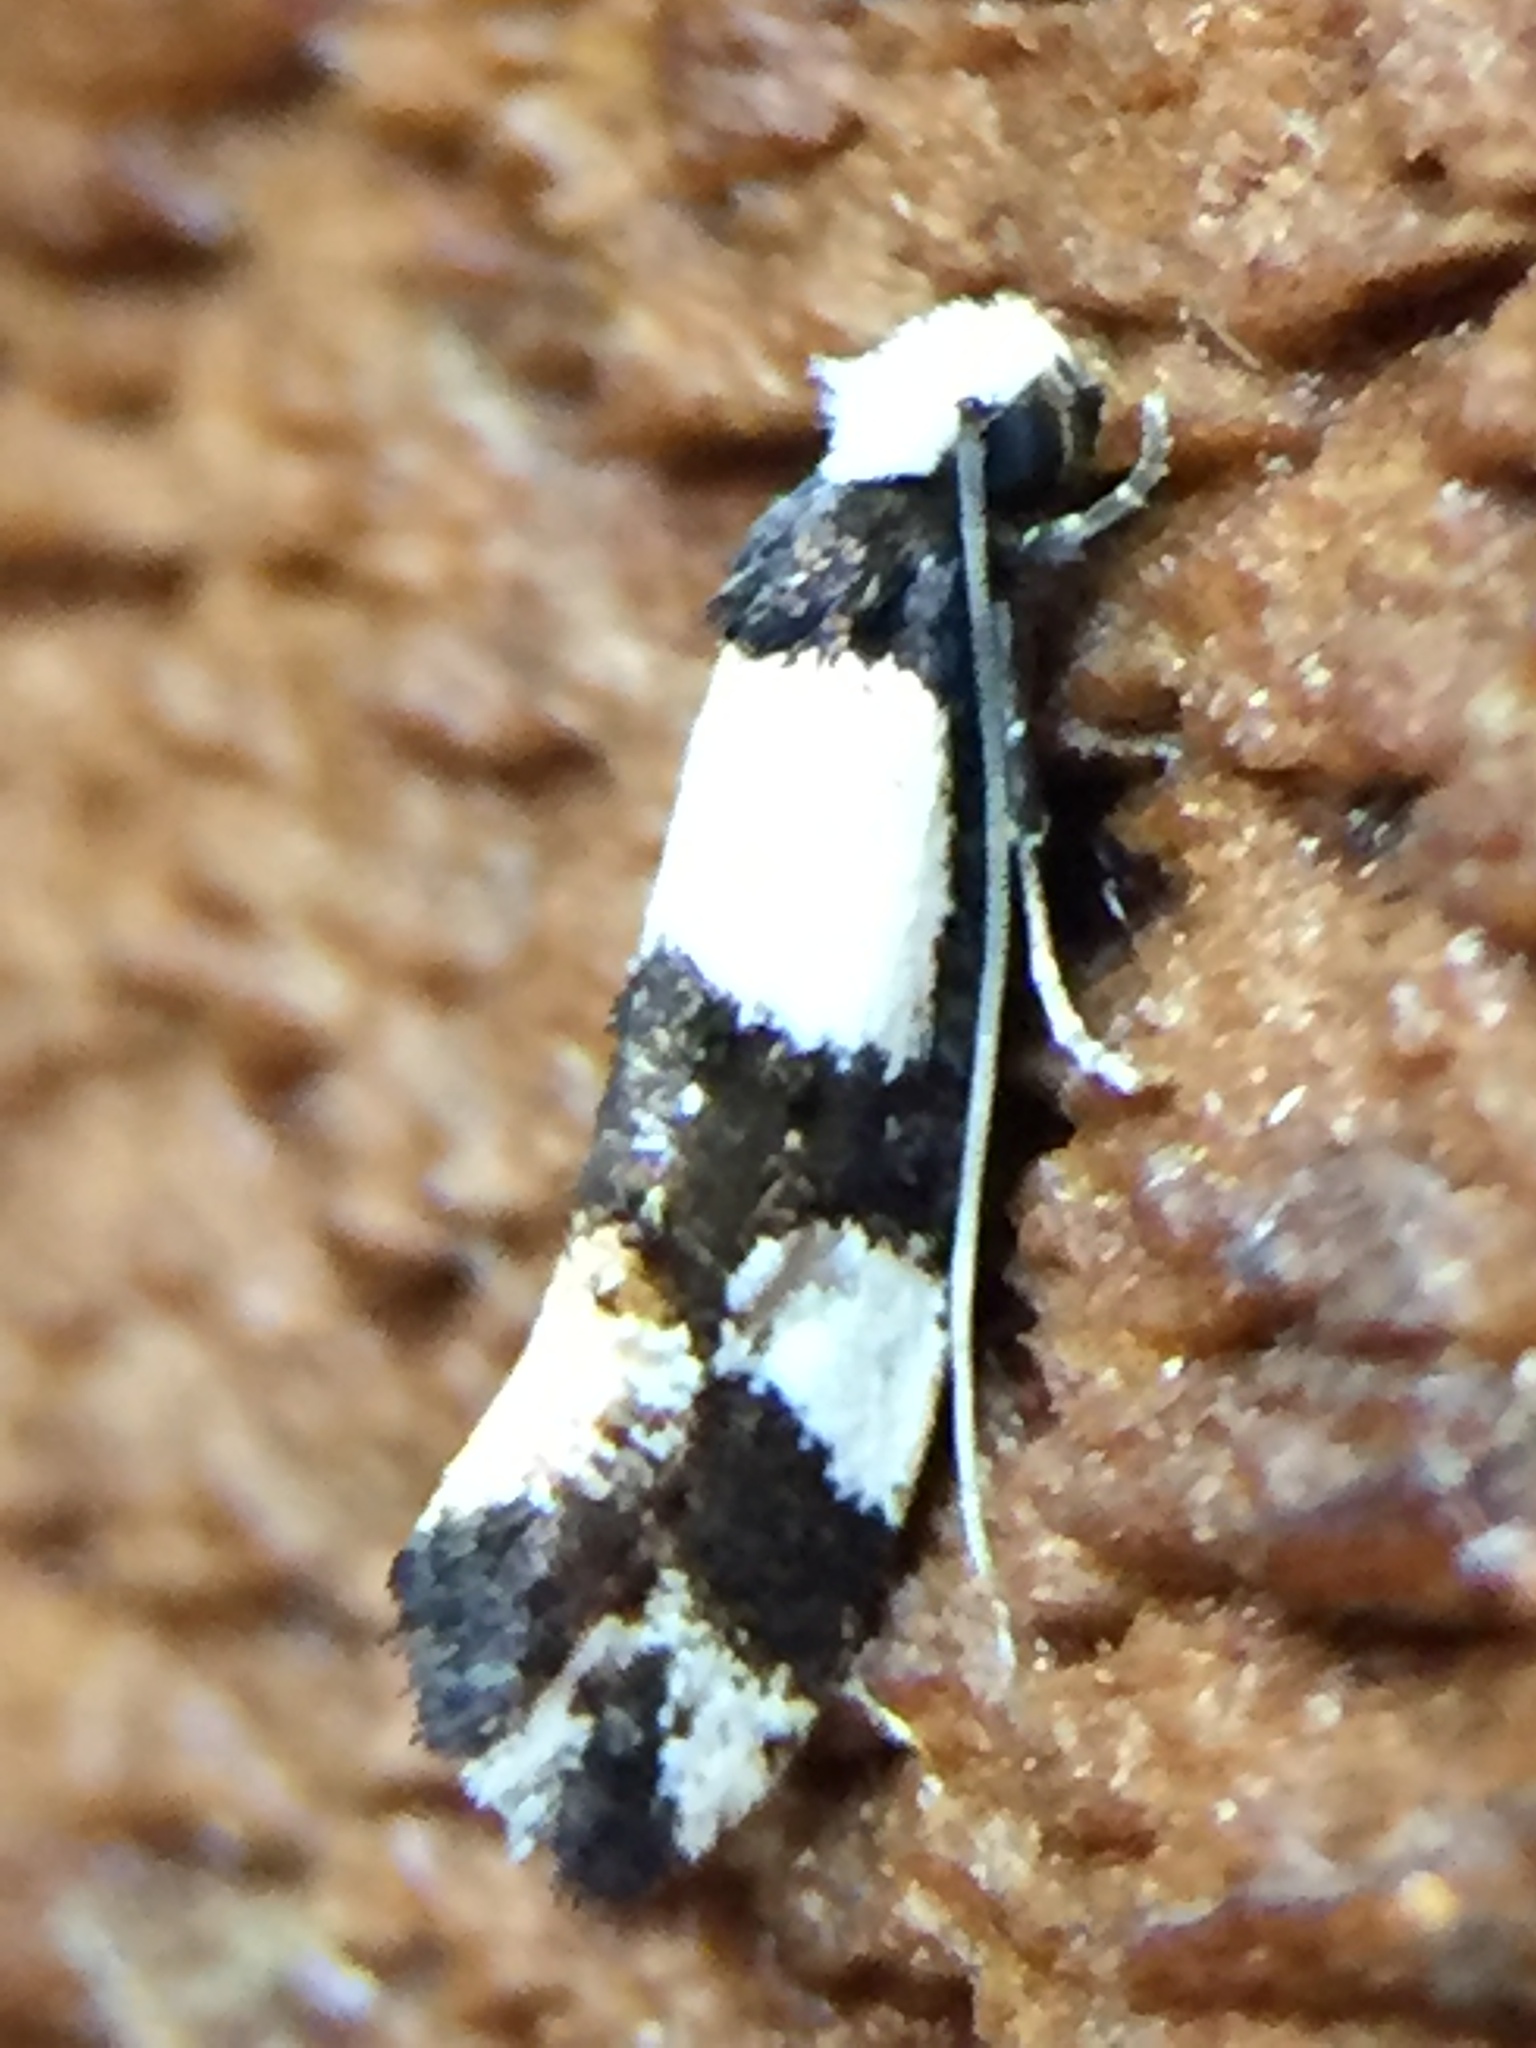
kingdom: Animalia
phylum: Arthropoda
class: Insecta
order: Lepidoptera
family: Tineidae
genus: Monopis
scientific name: Monopis icterogastra
